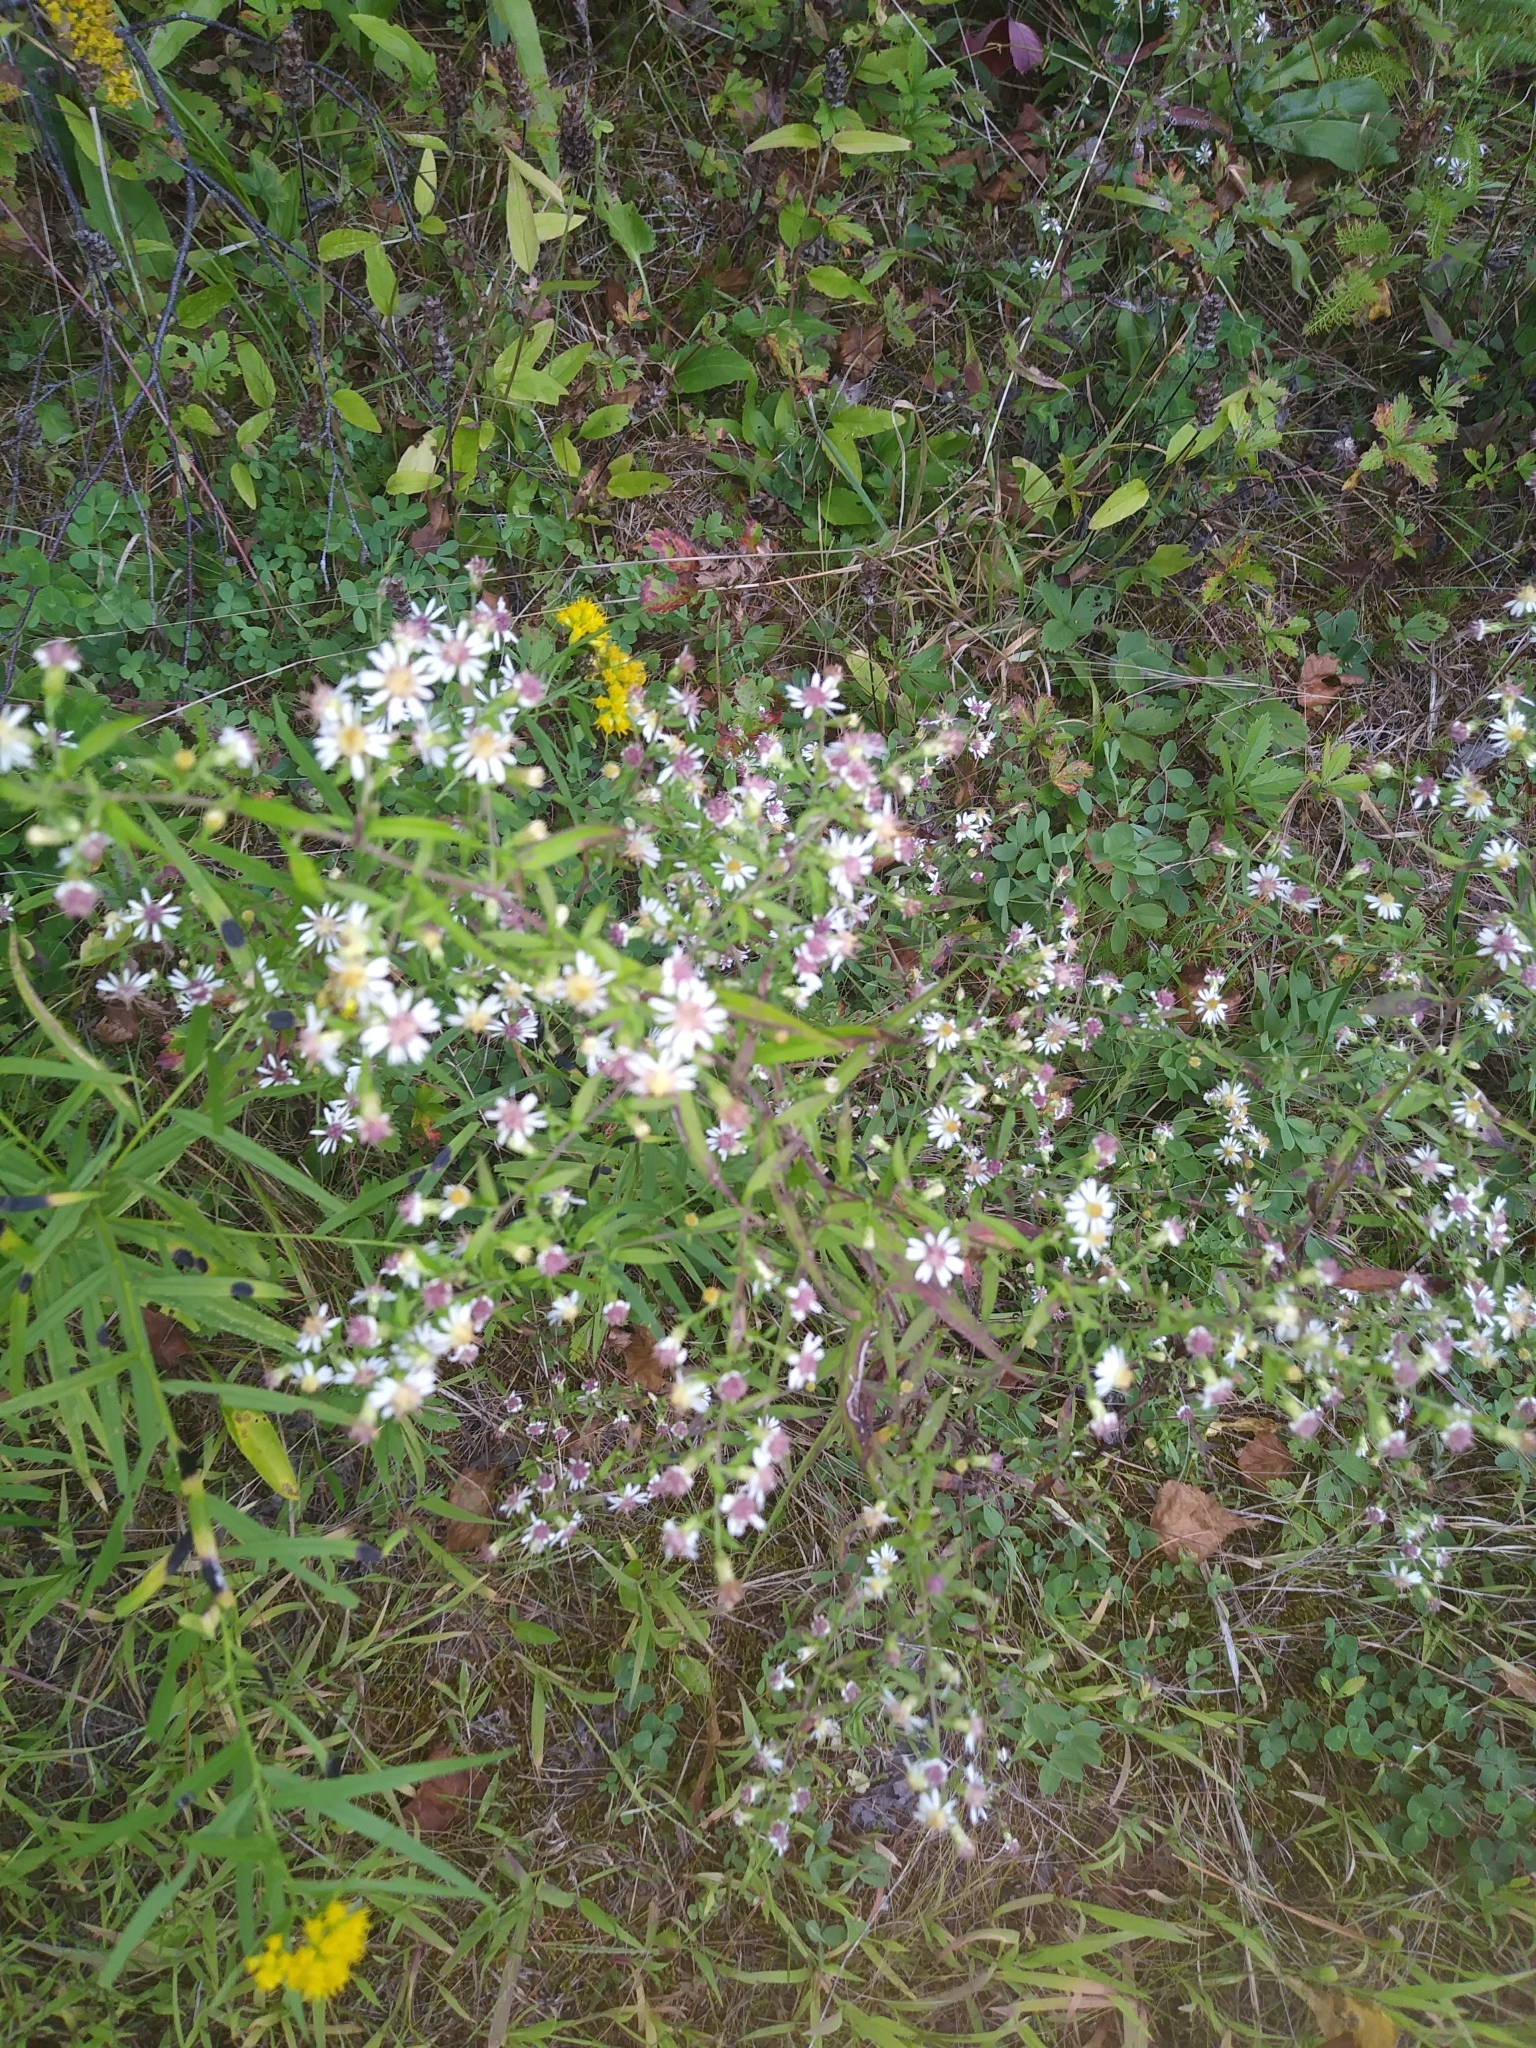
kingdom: Plantae
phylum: Tracheophyta
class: Magnoliopsida
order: Asterales
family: Asteraceae
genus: Symphyotrichum
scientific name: Symphyotrichum lateriflorum
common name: Calico aster
